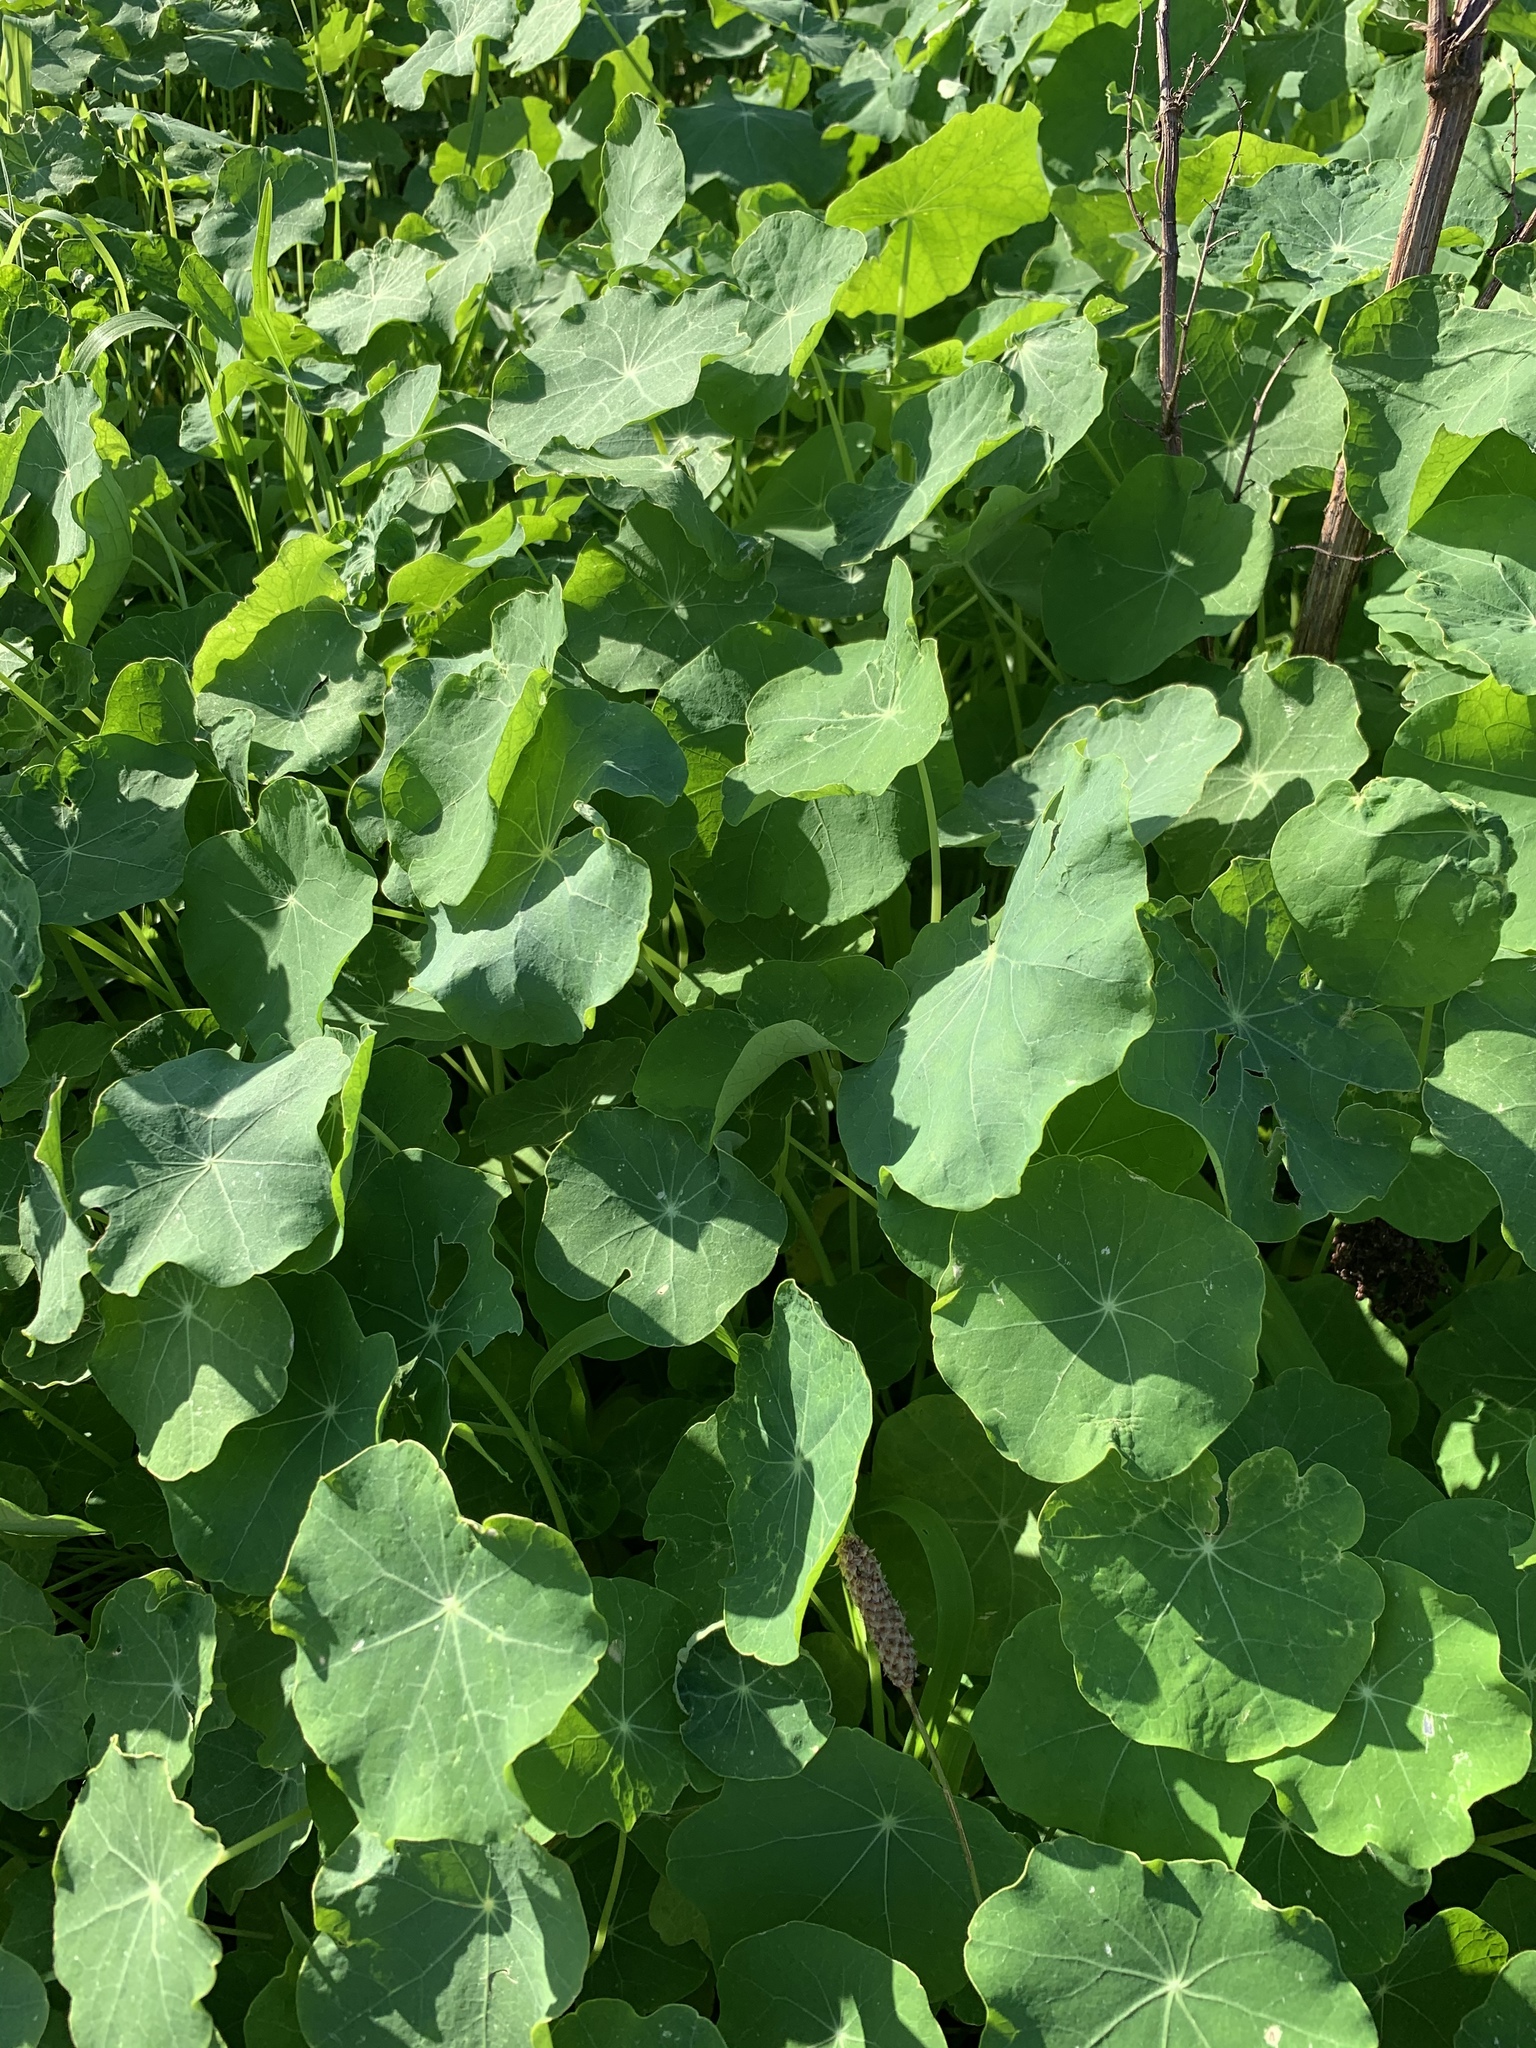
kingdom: Plantae
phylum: Tracheophyta
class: Magnoliopsida
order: Brassicales
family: Tropaeolaceae
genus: Tropaeolum
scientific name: Tropaeolum majus
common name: Nasturtium
